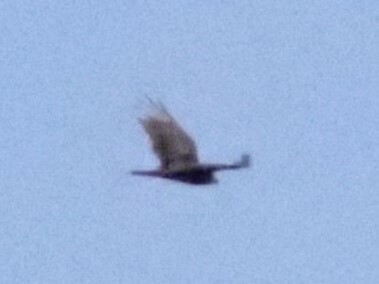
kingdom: Animalia
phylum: Chordata
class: Aves
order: Accipitriformes
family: Cathartidae
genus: Cathartes
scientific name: Cathartes aura
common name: Turkey vulture
